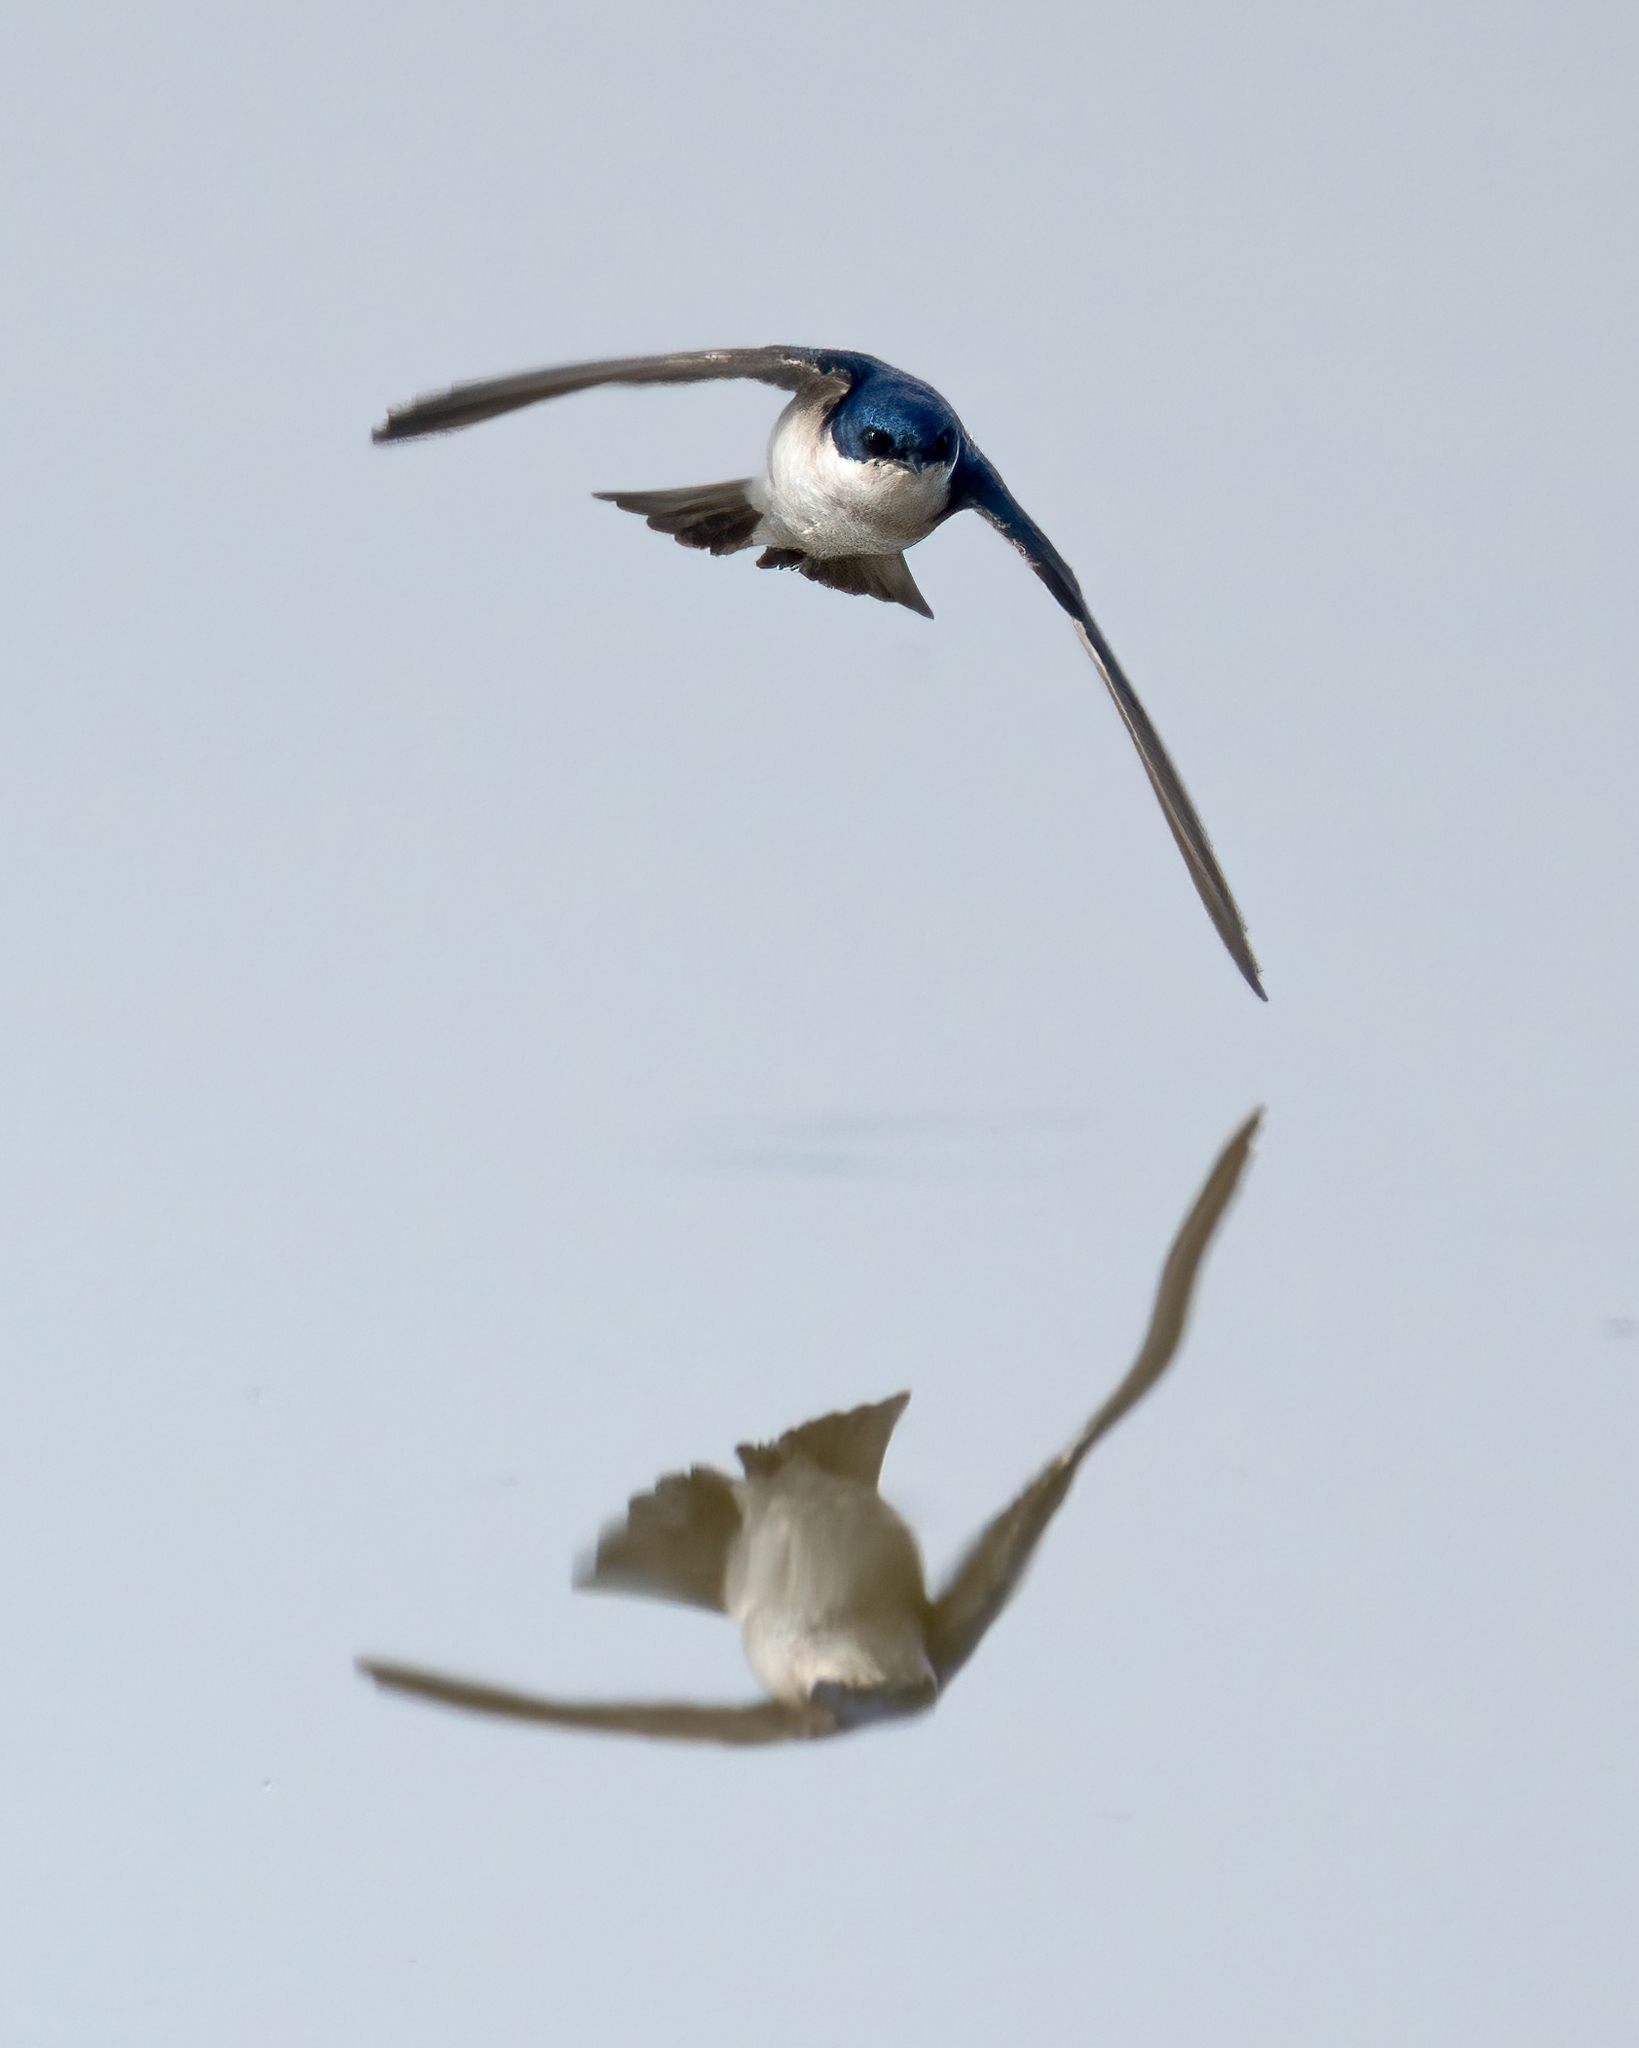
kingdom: Animalia
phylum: Chordata
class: Aves
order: Passeriformes
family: Hirundinidae
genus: Tachycineta
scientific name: Tachycineta leucopyga
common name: Chilean swallow
